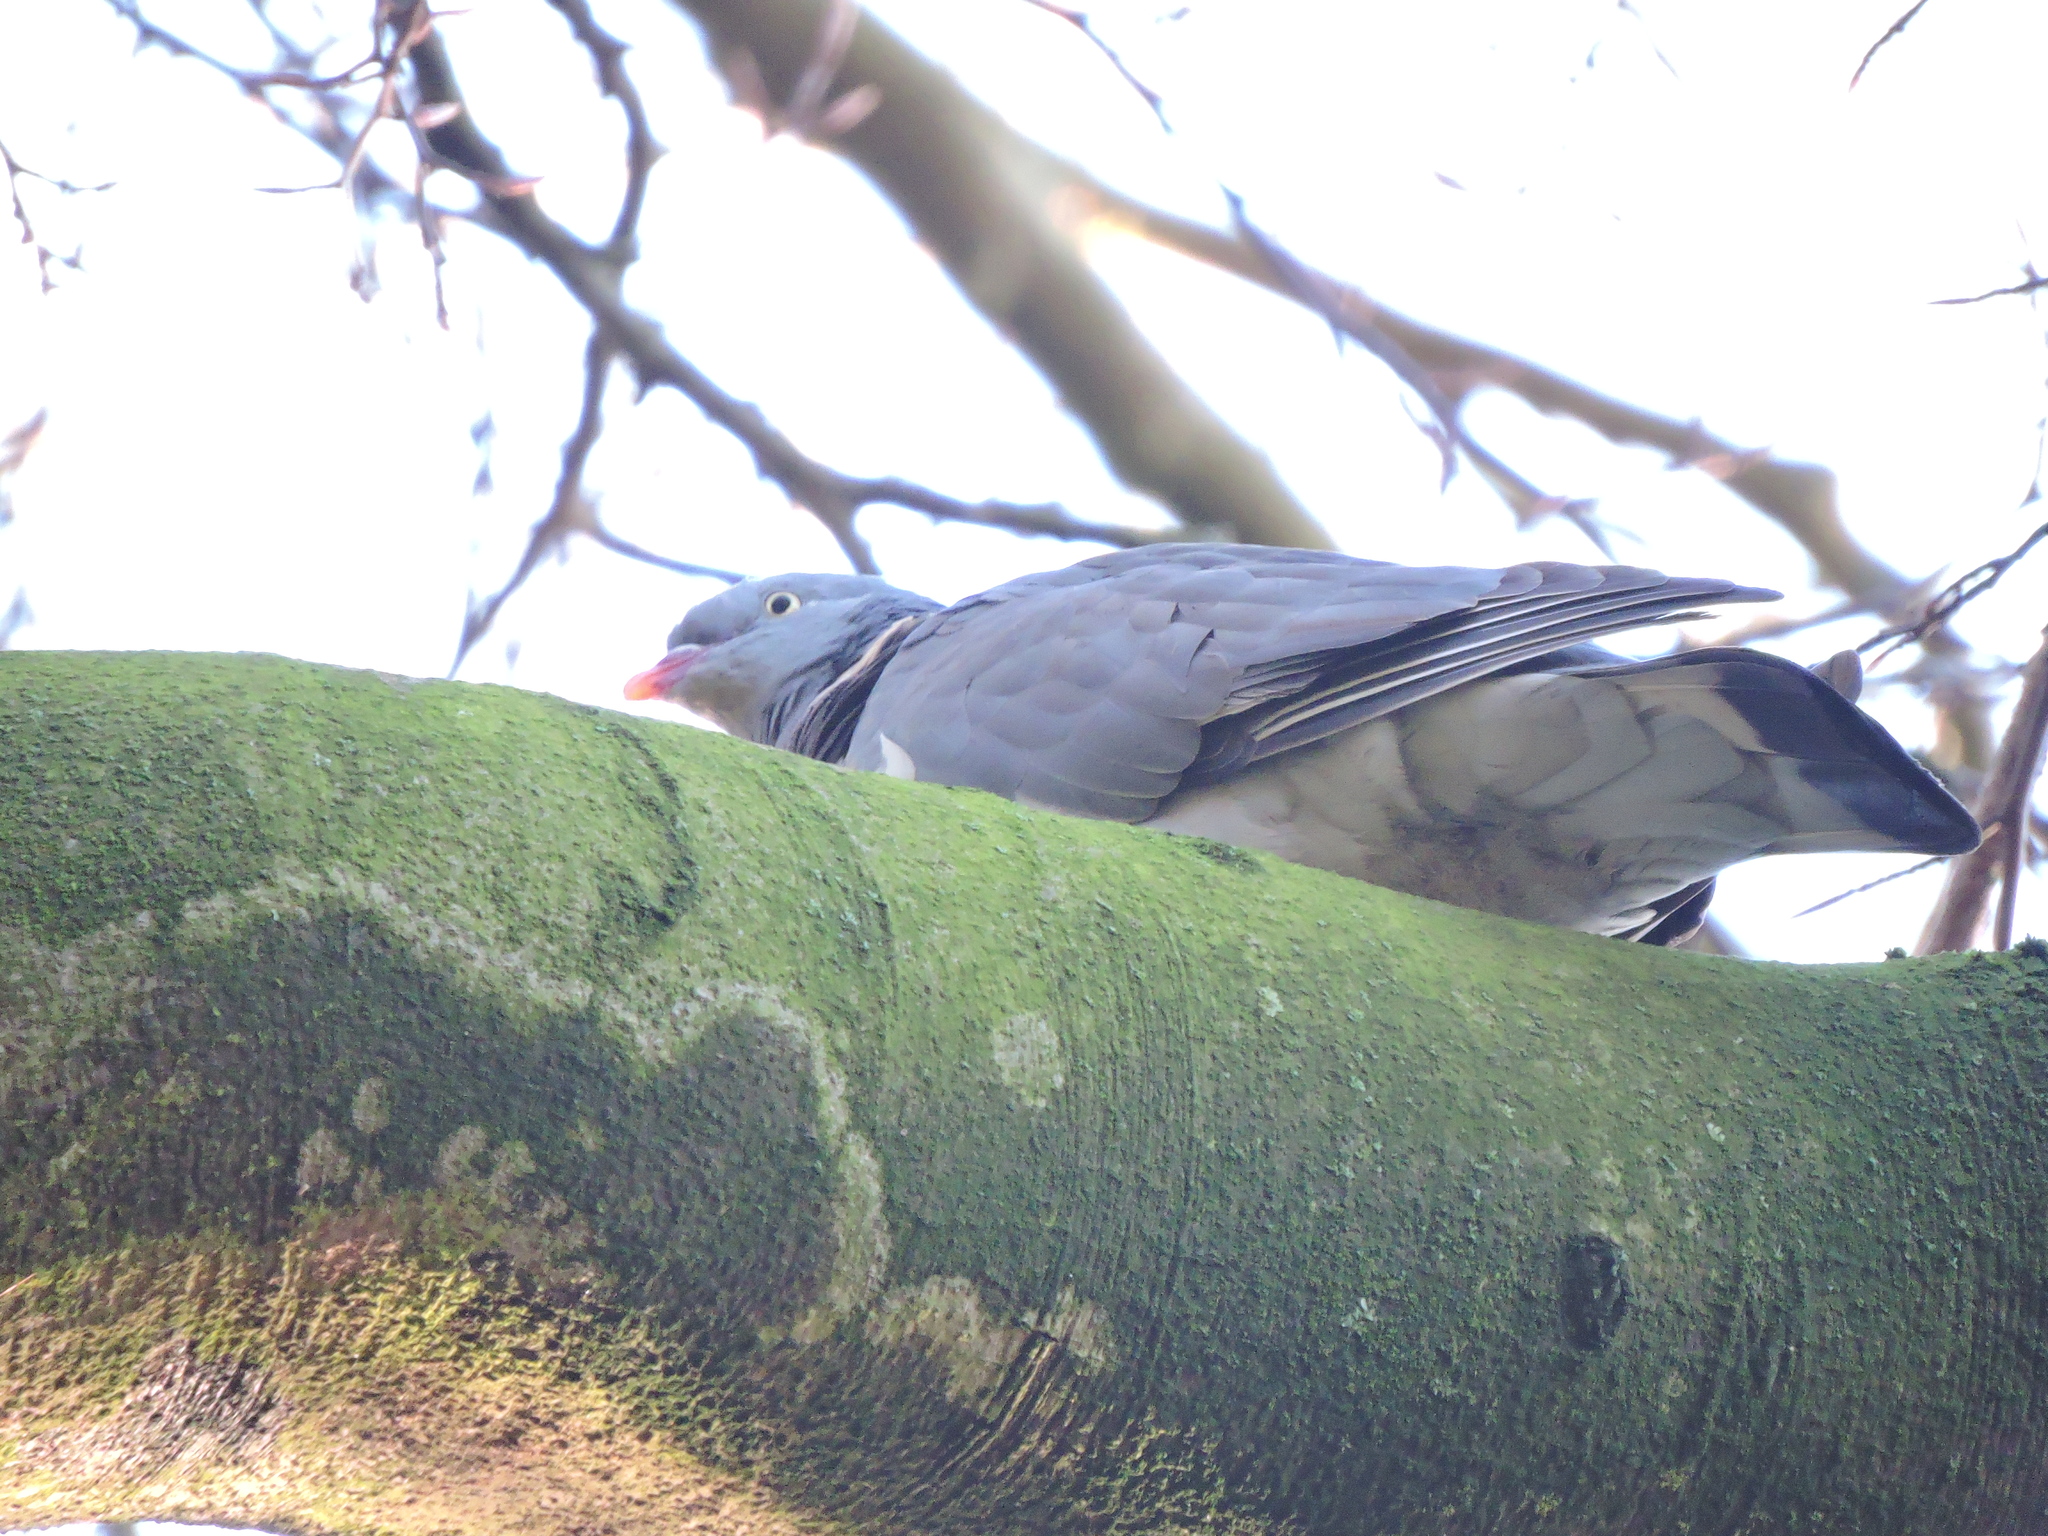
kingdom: Animalia
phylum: Chordata
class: Aves
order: Columbiformes
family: Columbidae
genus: Columba
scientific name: Columba palumbus
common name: Common wood pigeon
